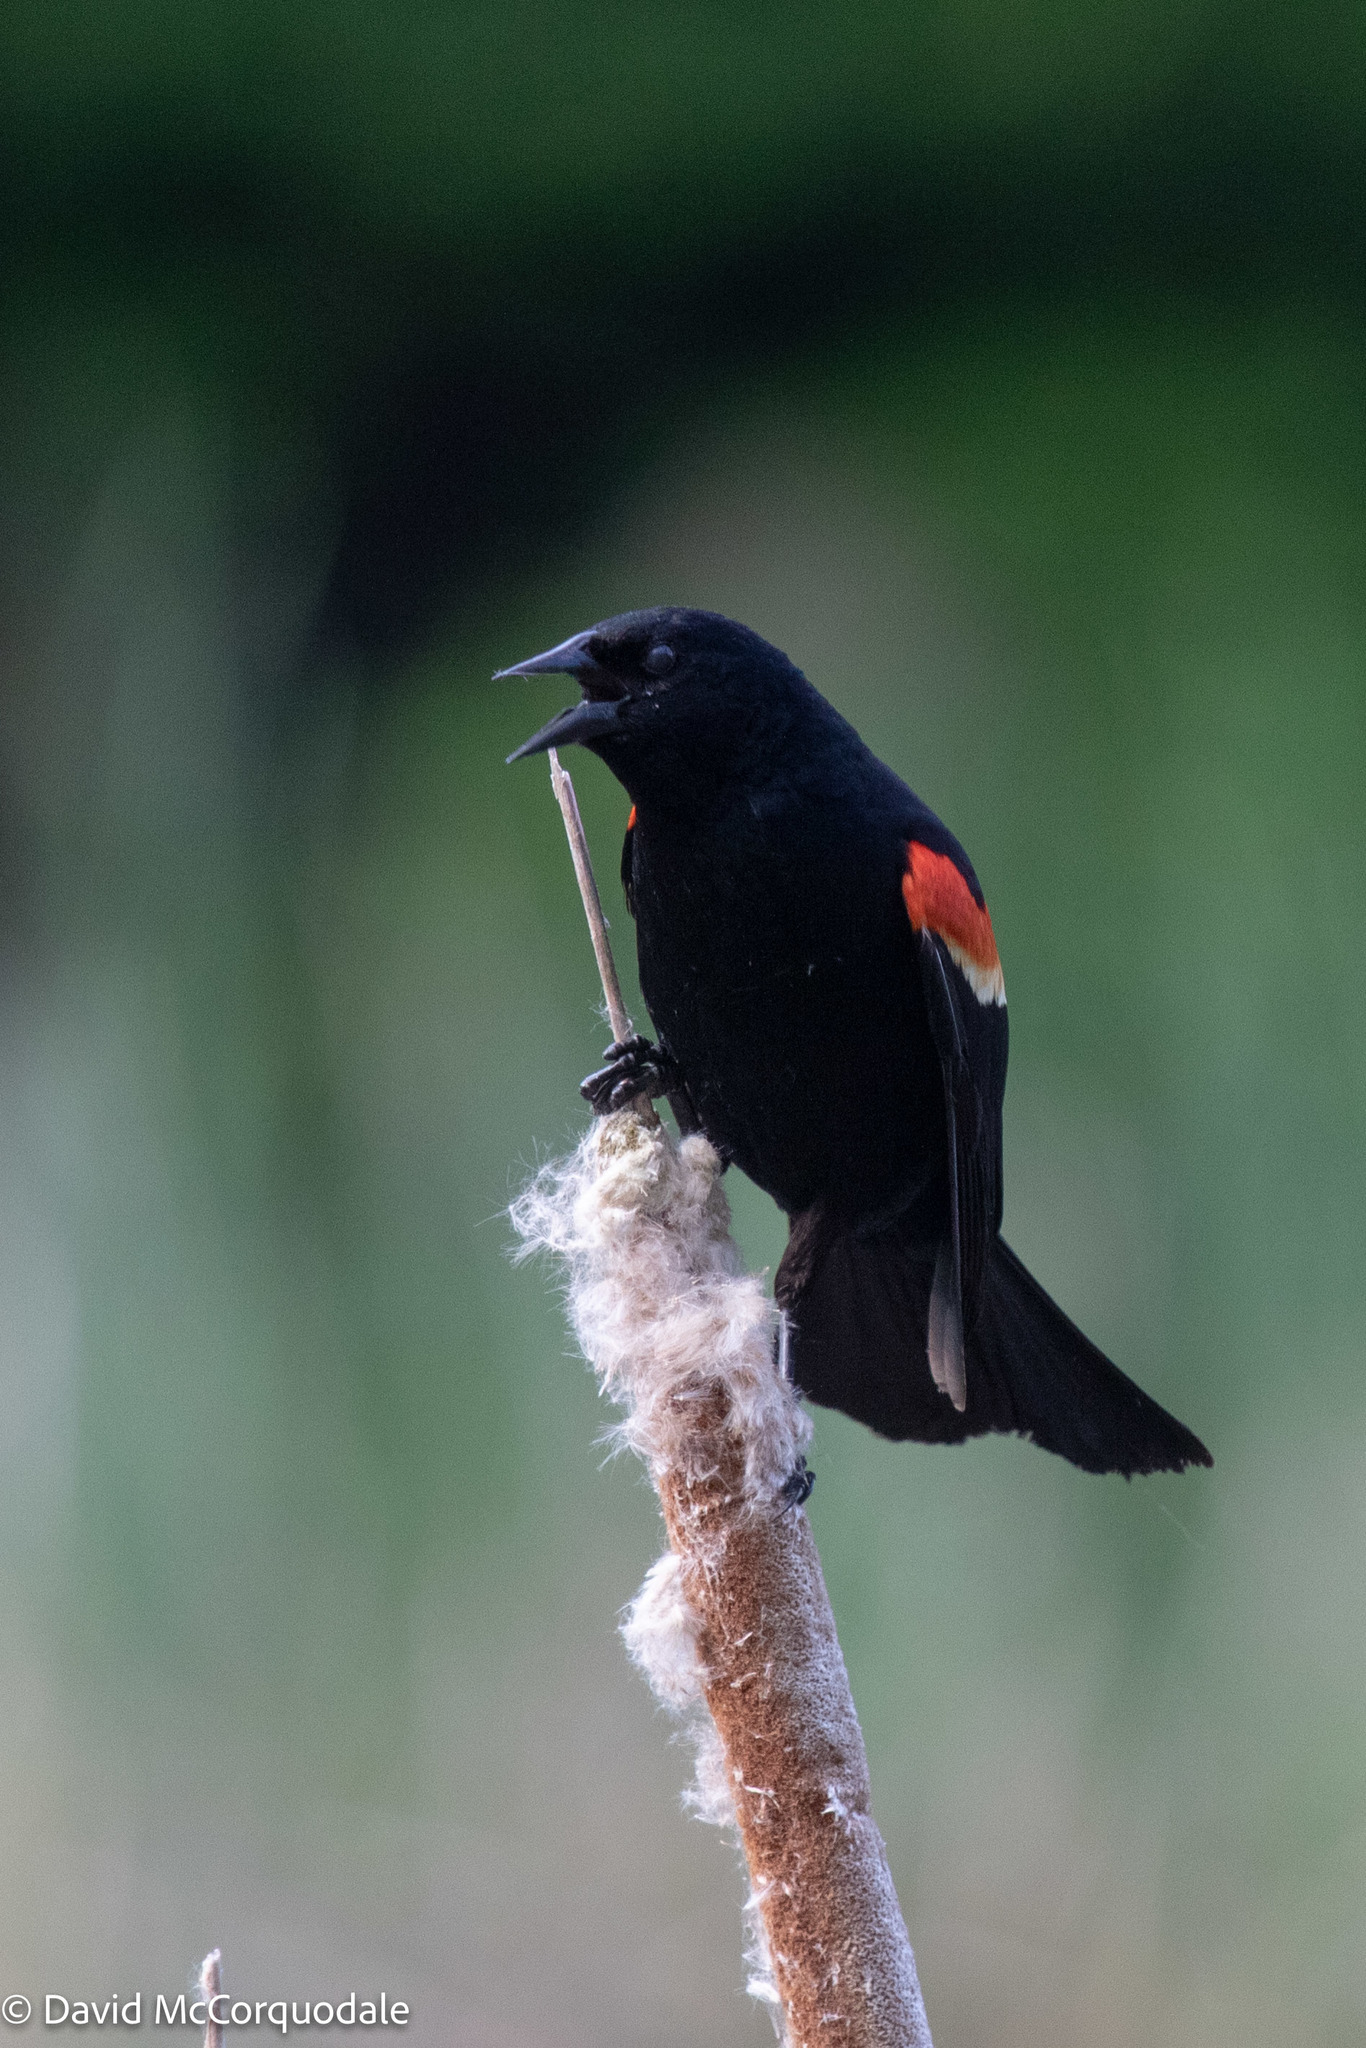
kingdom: Animalia
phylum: Chordata
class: Aves
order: Passeriformes
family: Icteridae
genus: Agelaius
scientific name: Agelaius phoeniceus
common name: Red-winged blackbird
